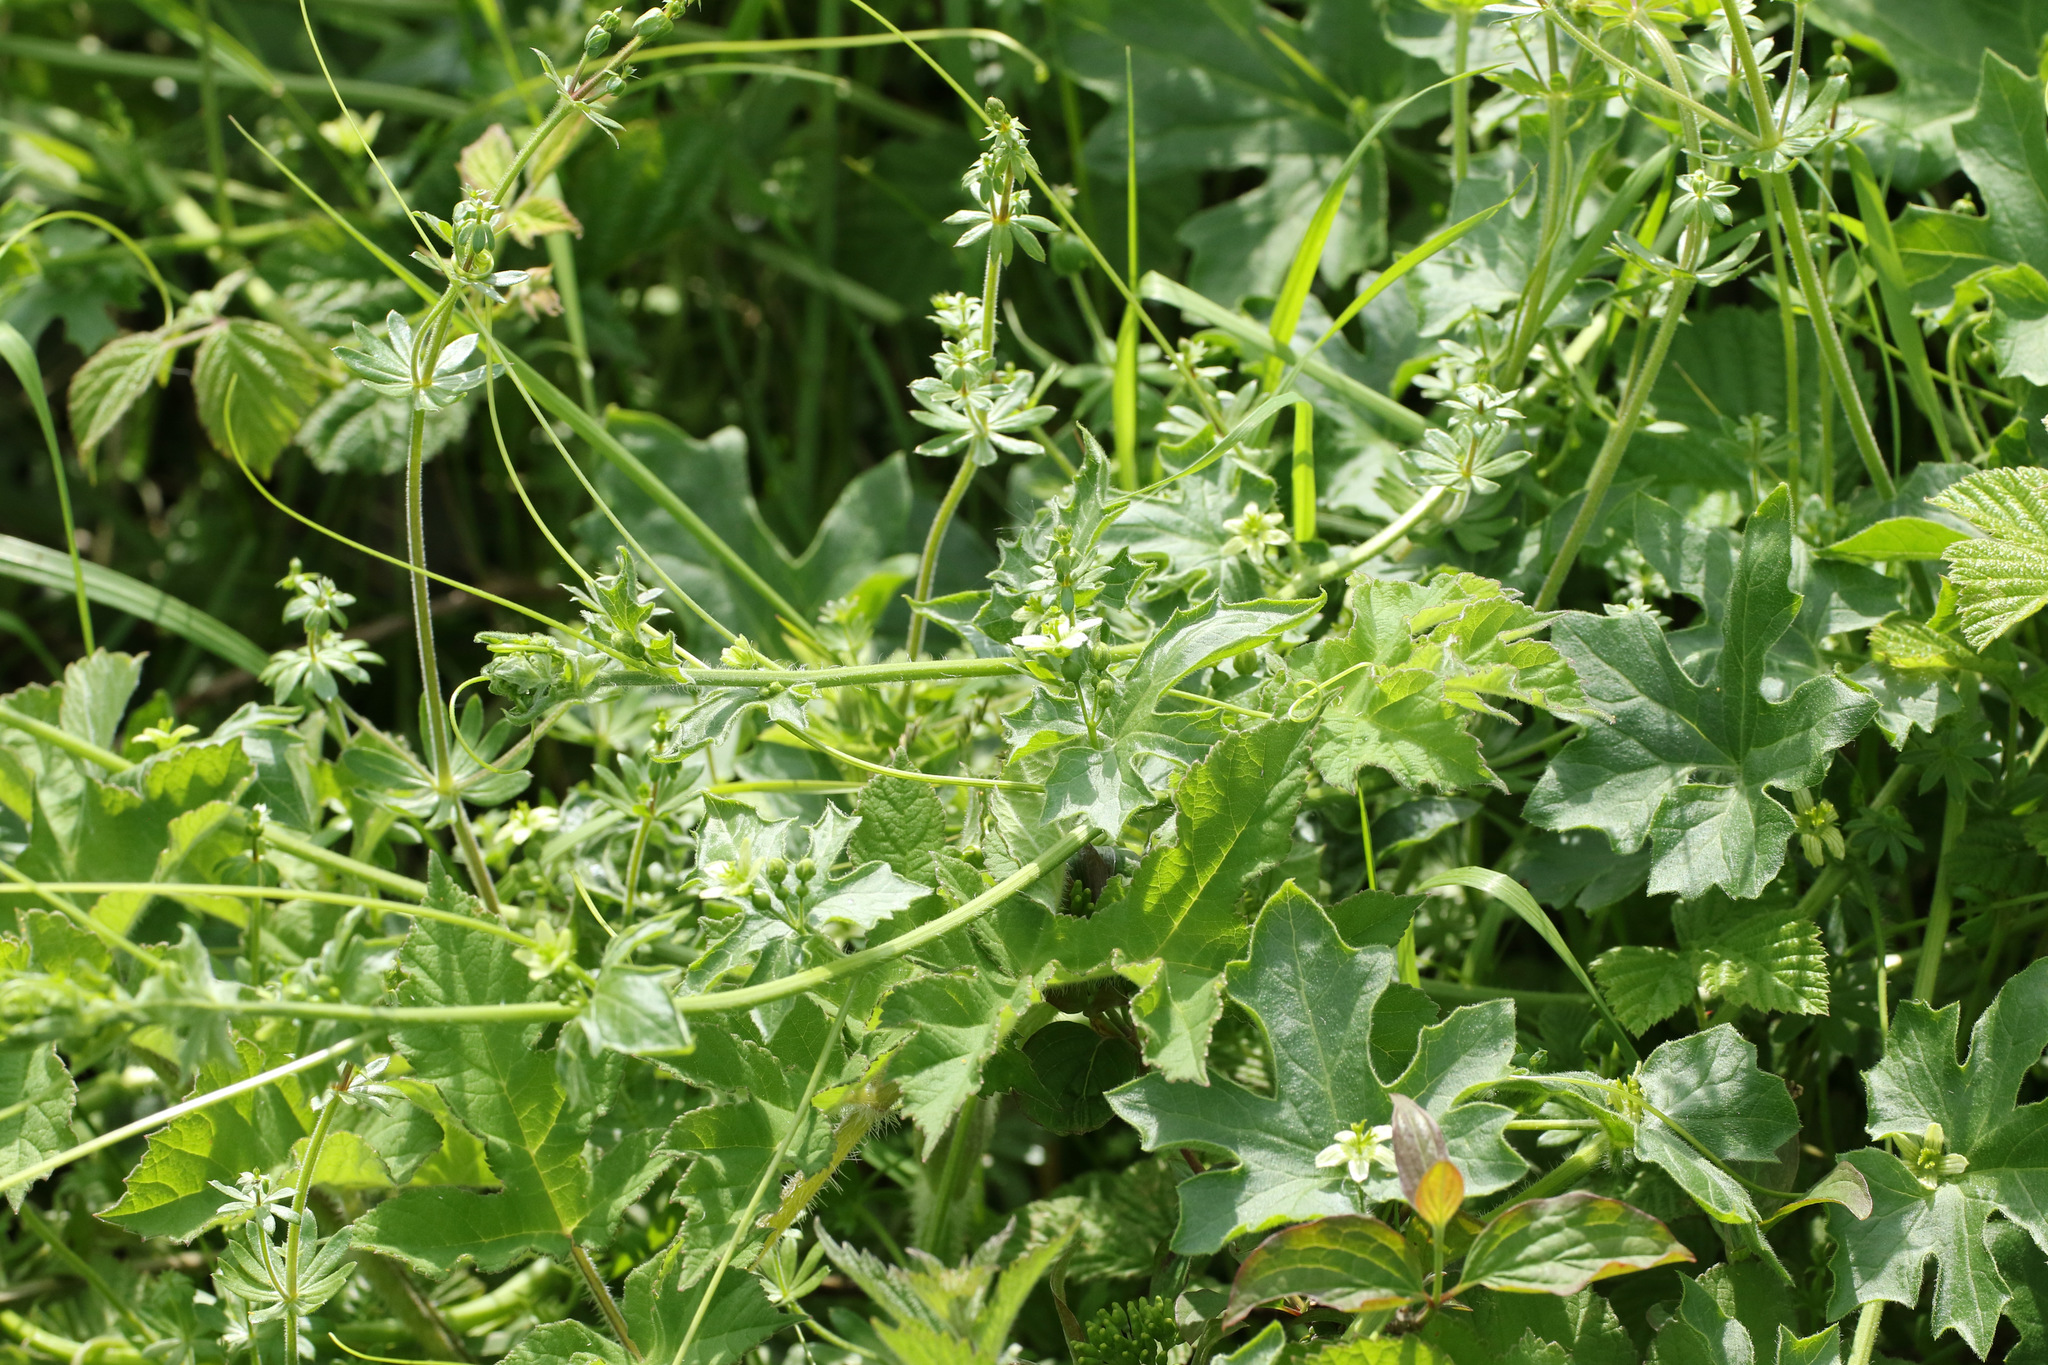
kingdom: Plantae
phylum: Tracheophyta
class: Magnoliopsida
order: Cucurbitales
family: Cucurbitaceae
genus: Bryonia
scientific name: Bryonia cretica
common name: Cretan bryony
